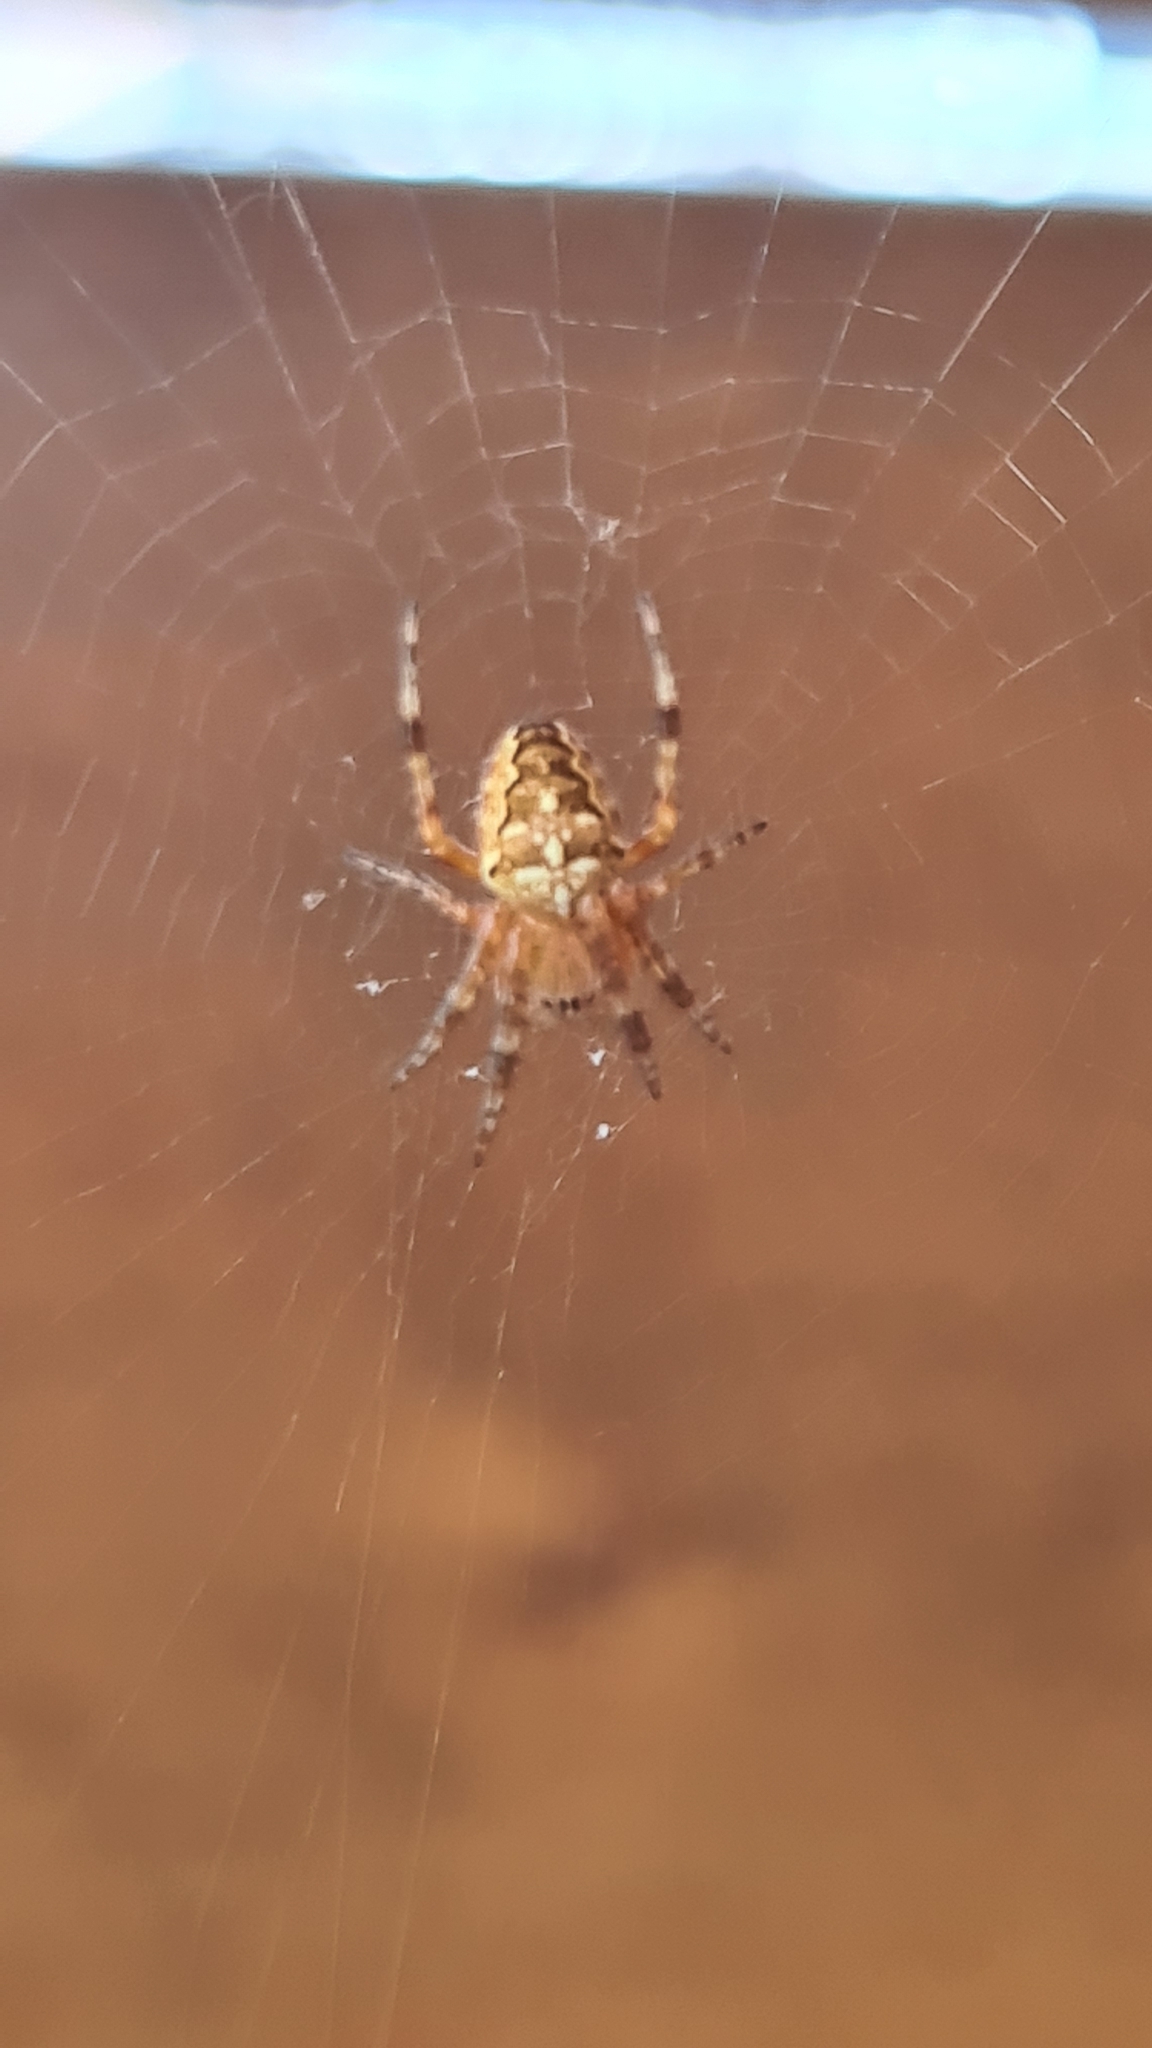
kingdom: Animalia
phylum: Arthropoda
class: Arachnida
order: Araneae
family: Araneidae
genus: Araneus
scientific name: Araneus diadematus
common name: Cross orbweaver
